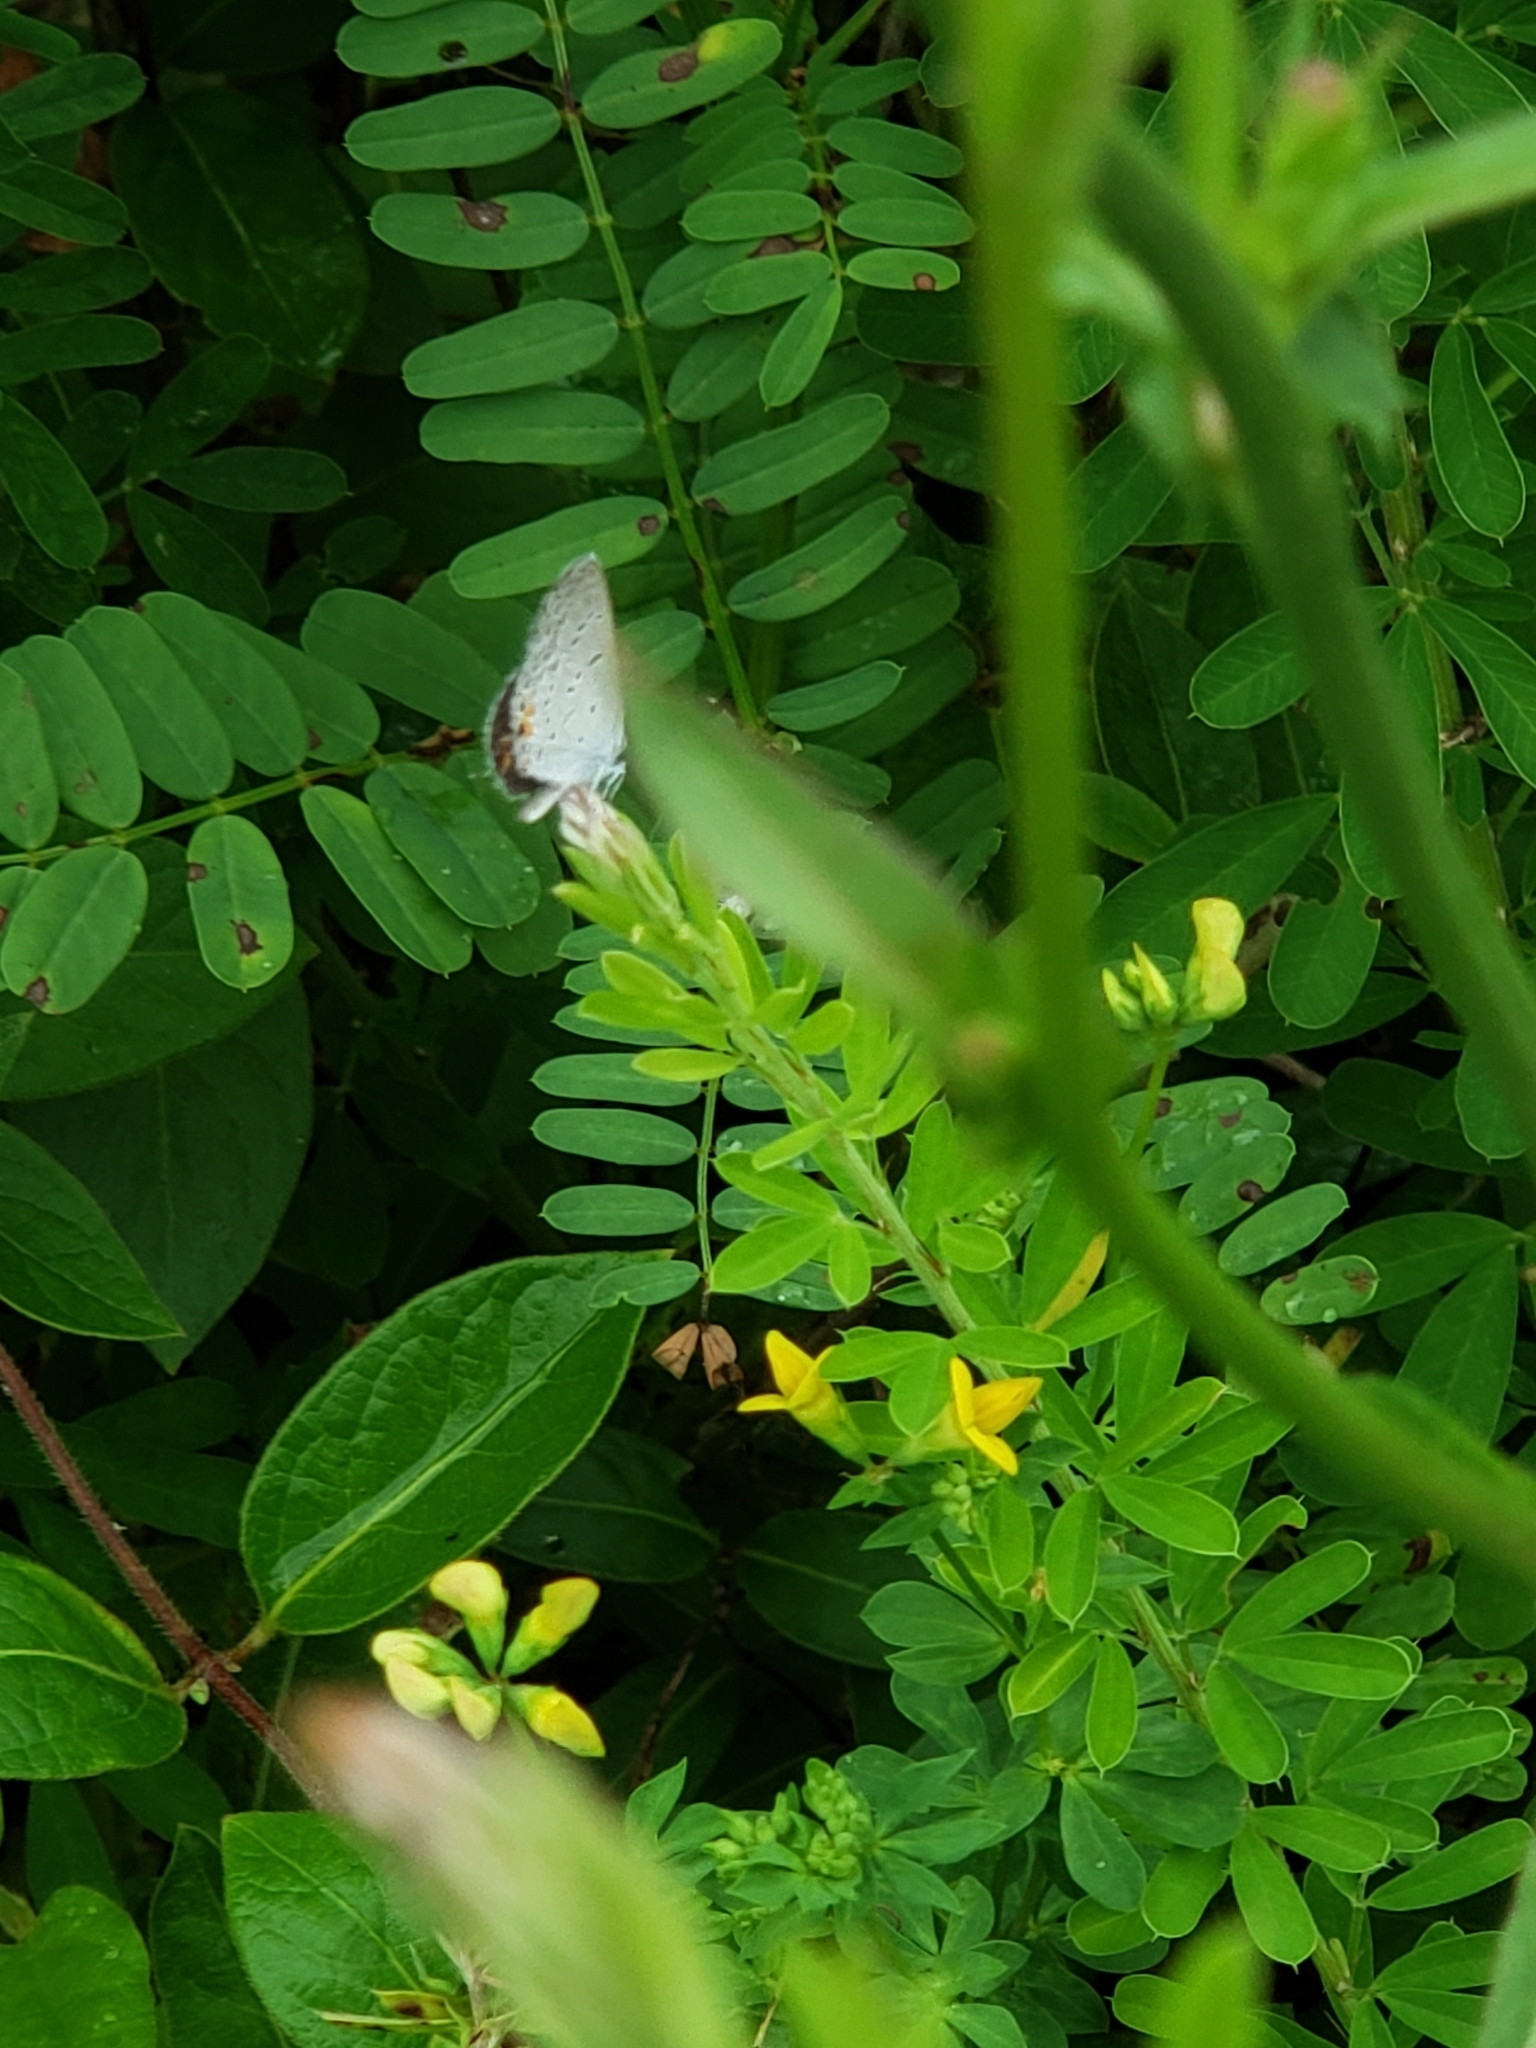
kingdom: Animalia
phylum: Arthropoda
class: Insecta
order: Lepidoptera
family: Lycaenidae
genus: Elkalyce
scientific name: Elkalyce comyntas
